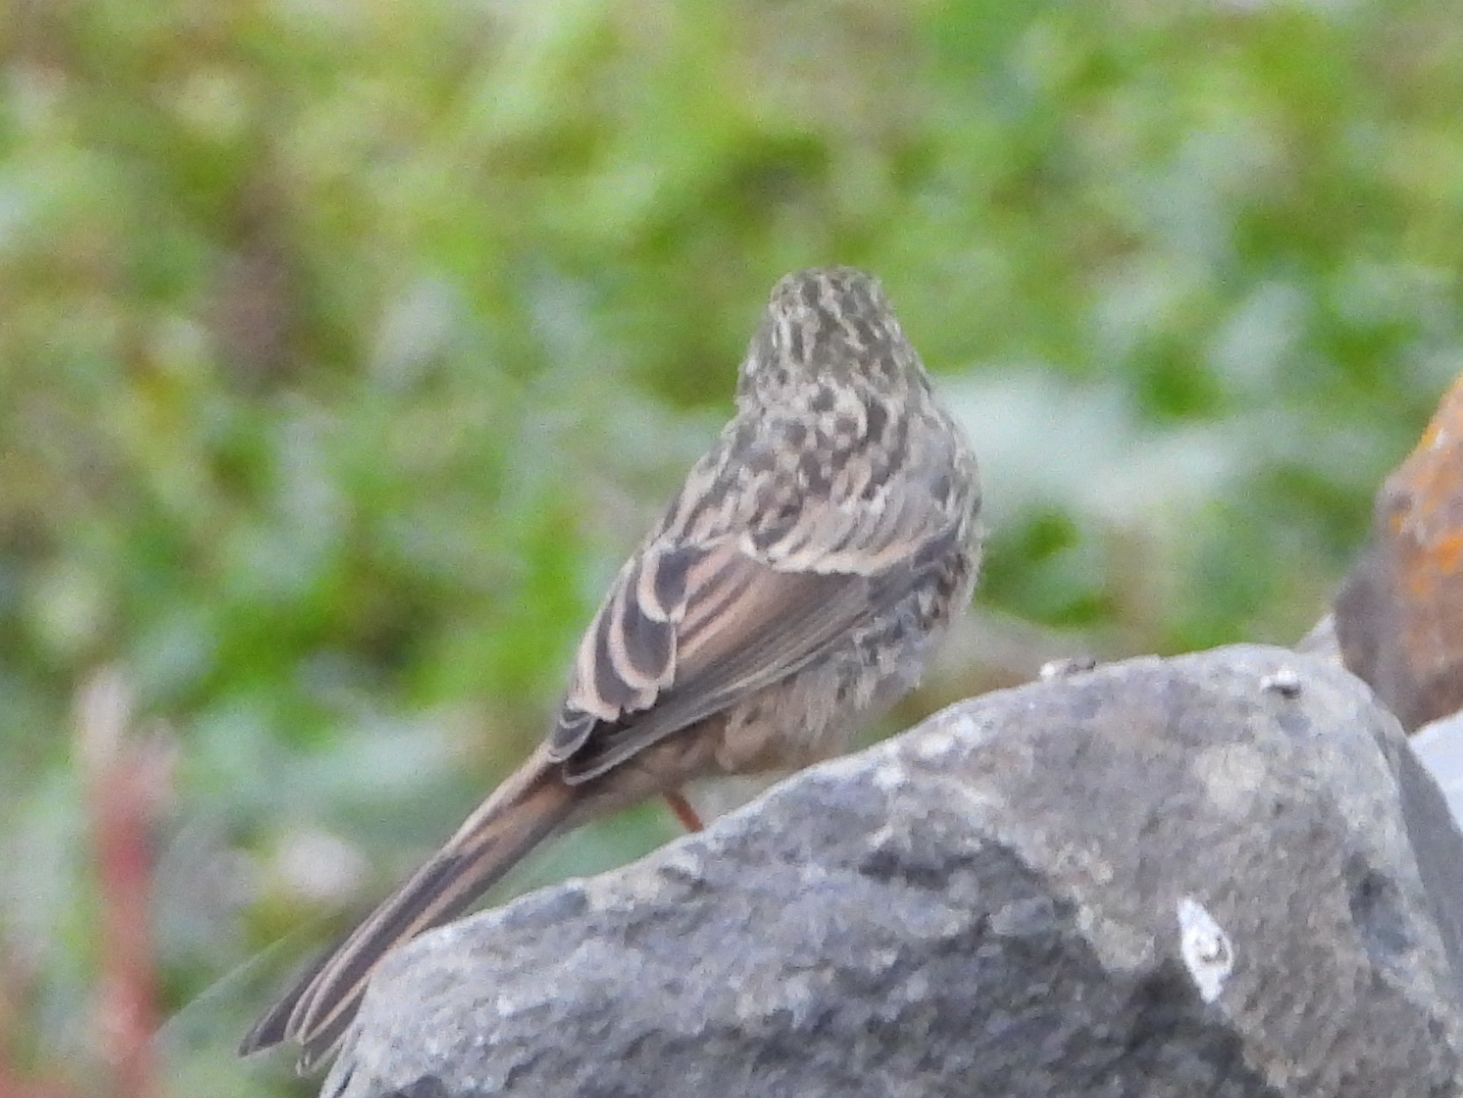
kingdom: Animalia
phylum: Chordata
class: Aves
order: Passeriformes
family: Emberizidae
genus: Emberiza
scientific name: Emberiza cia
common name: Rock bunting
